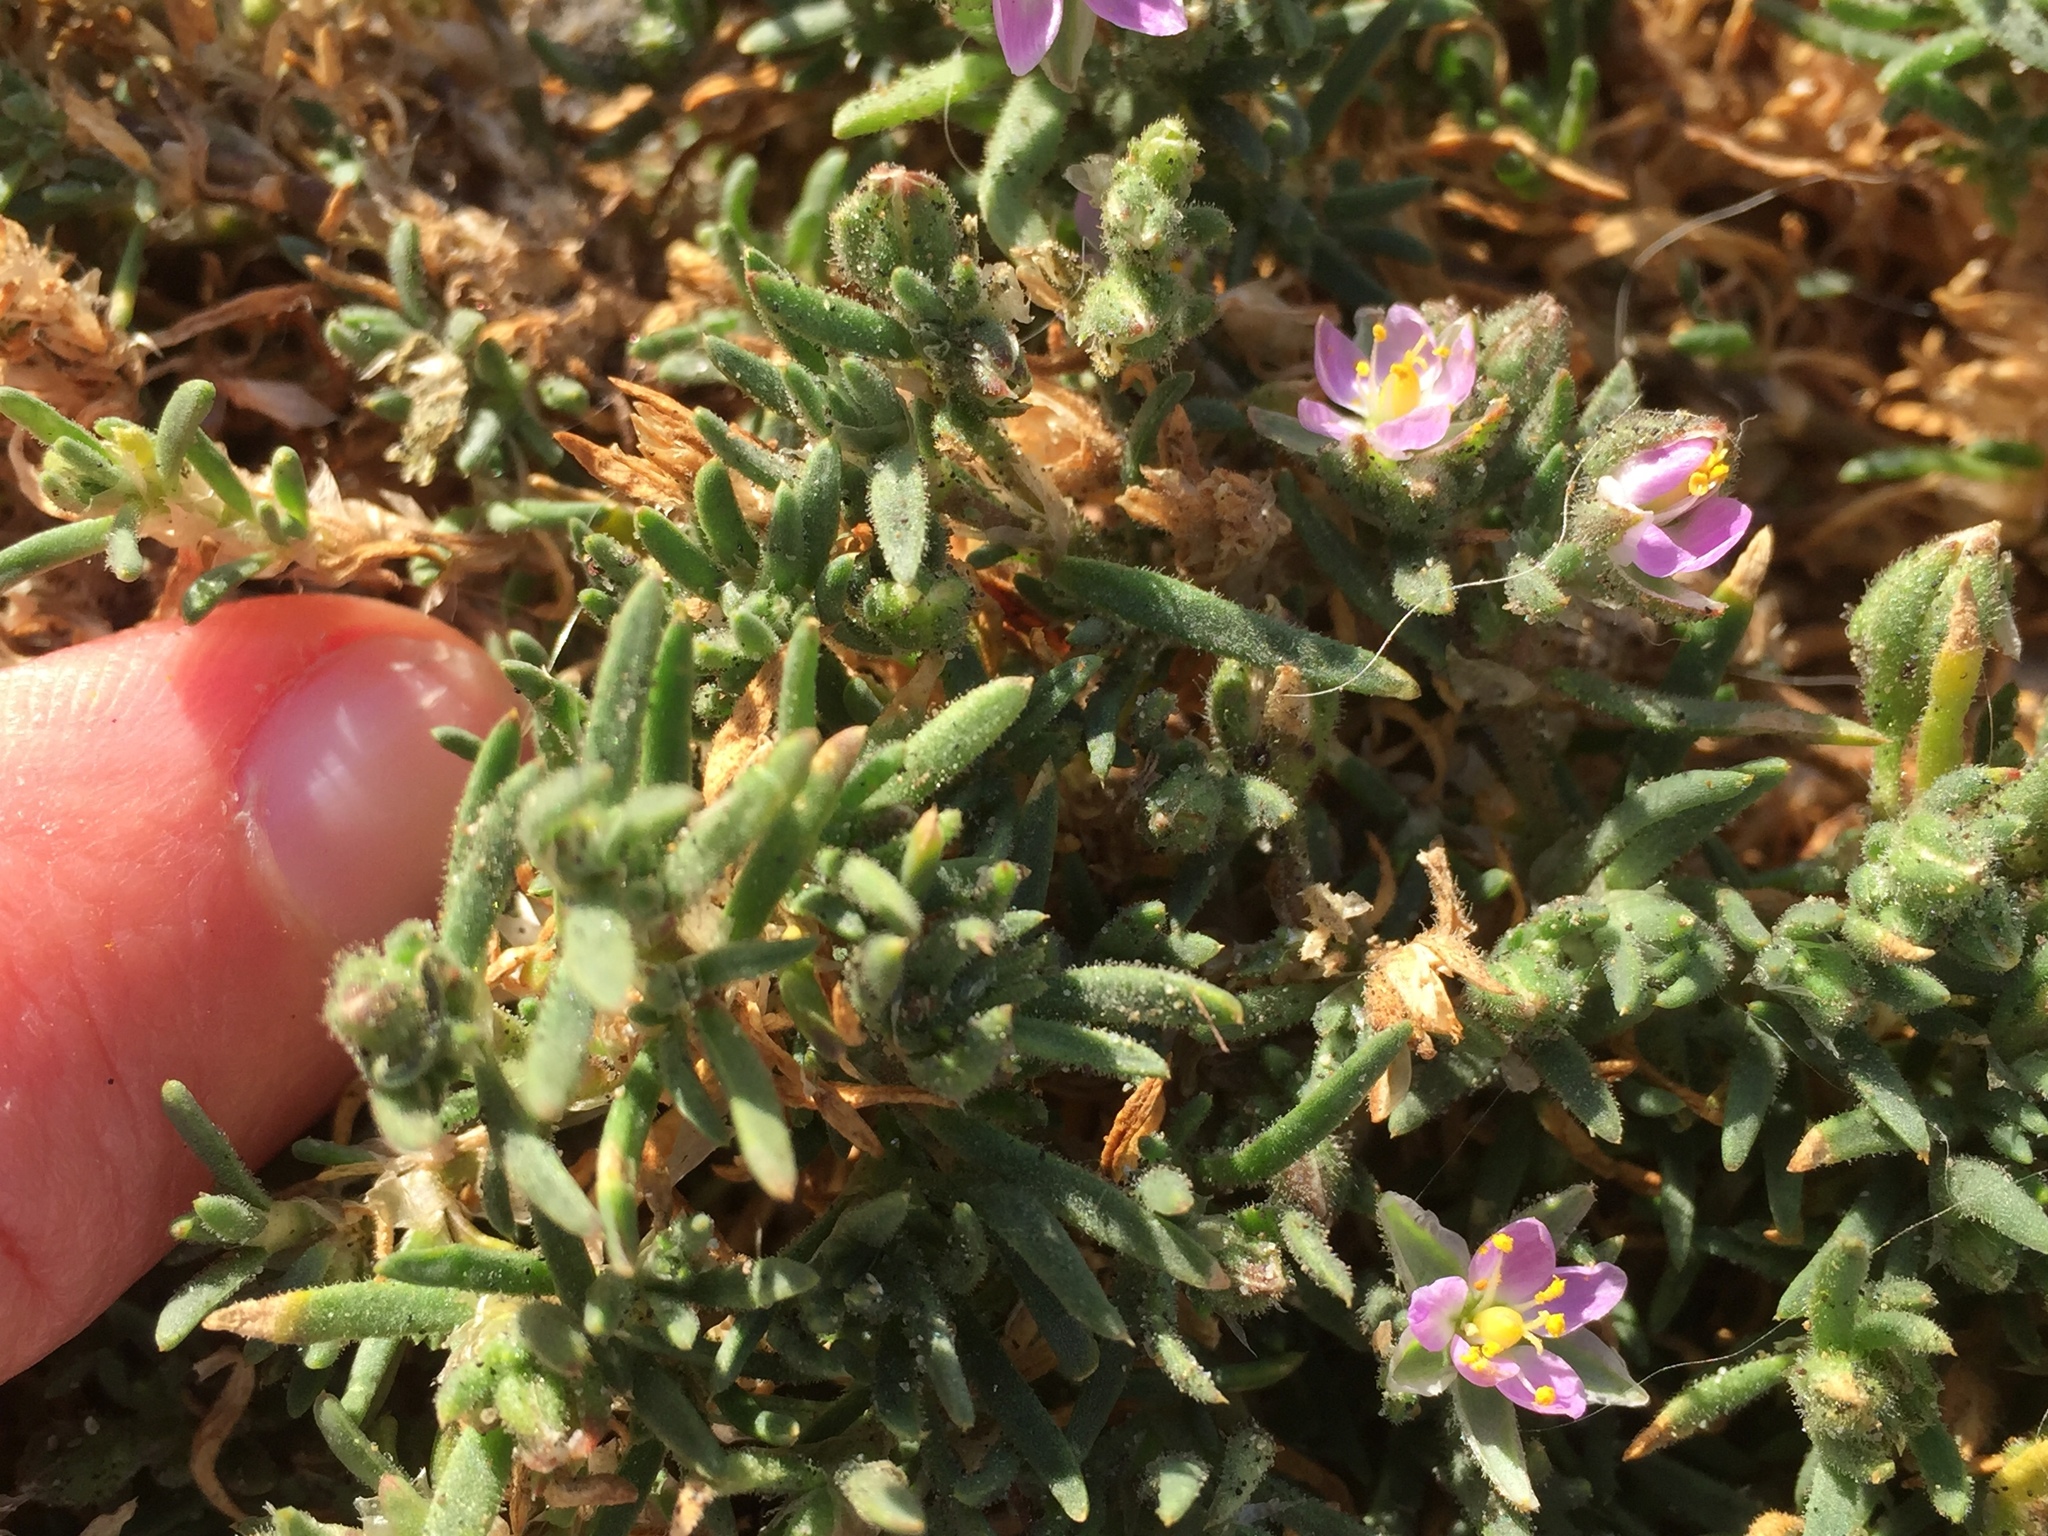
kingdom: Plantae
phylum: Tracheophyta
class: Magnoliopsida
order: Caryophyllales
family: Caryophyllaceae
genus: Spergularia
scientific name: Spergularia macrotheca
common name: Beach sand-spurrey
